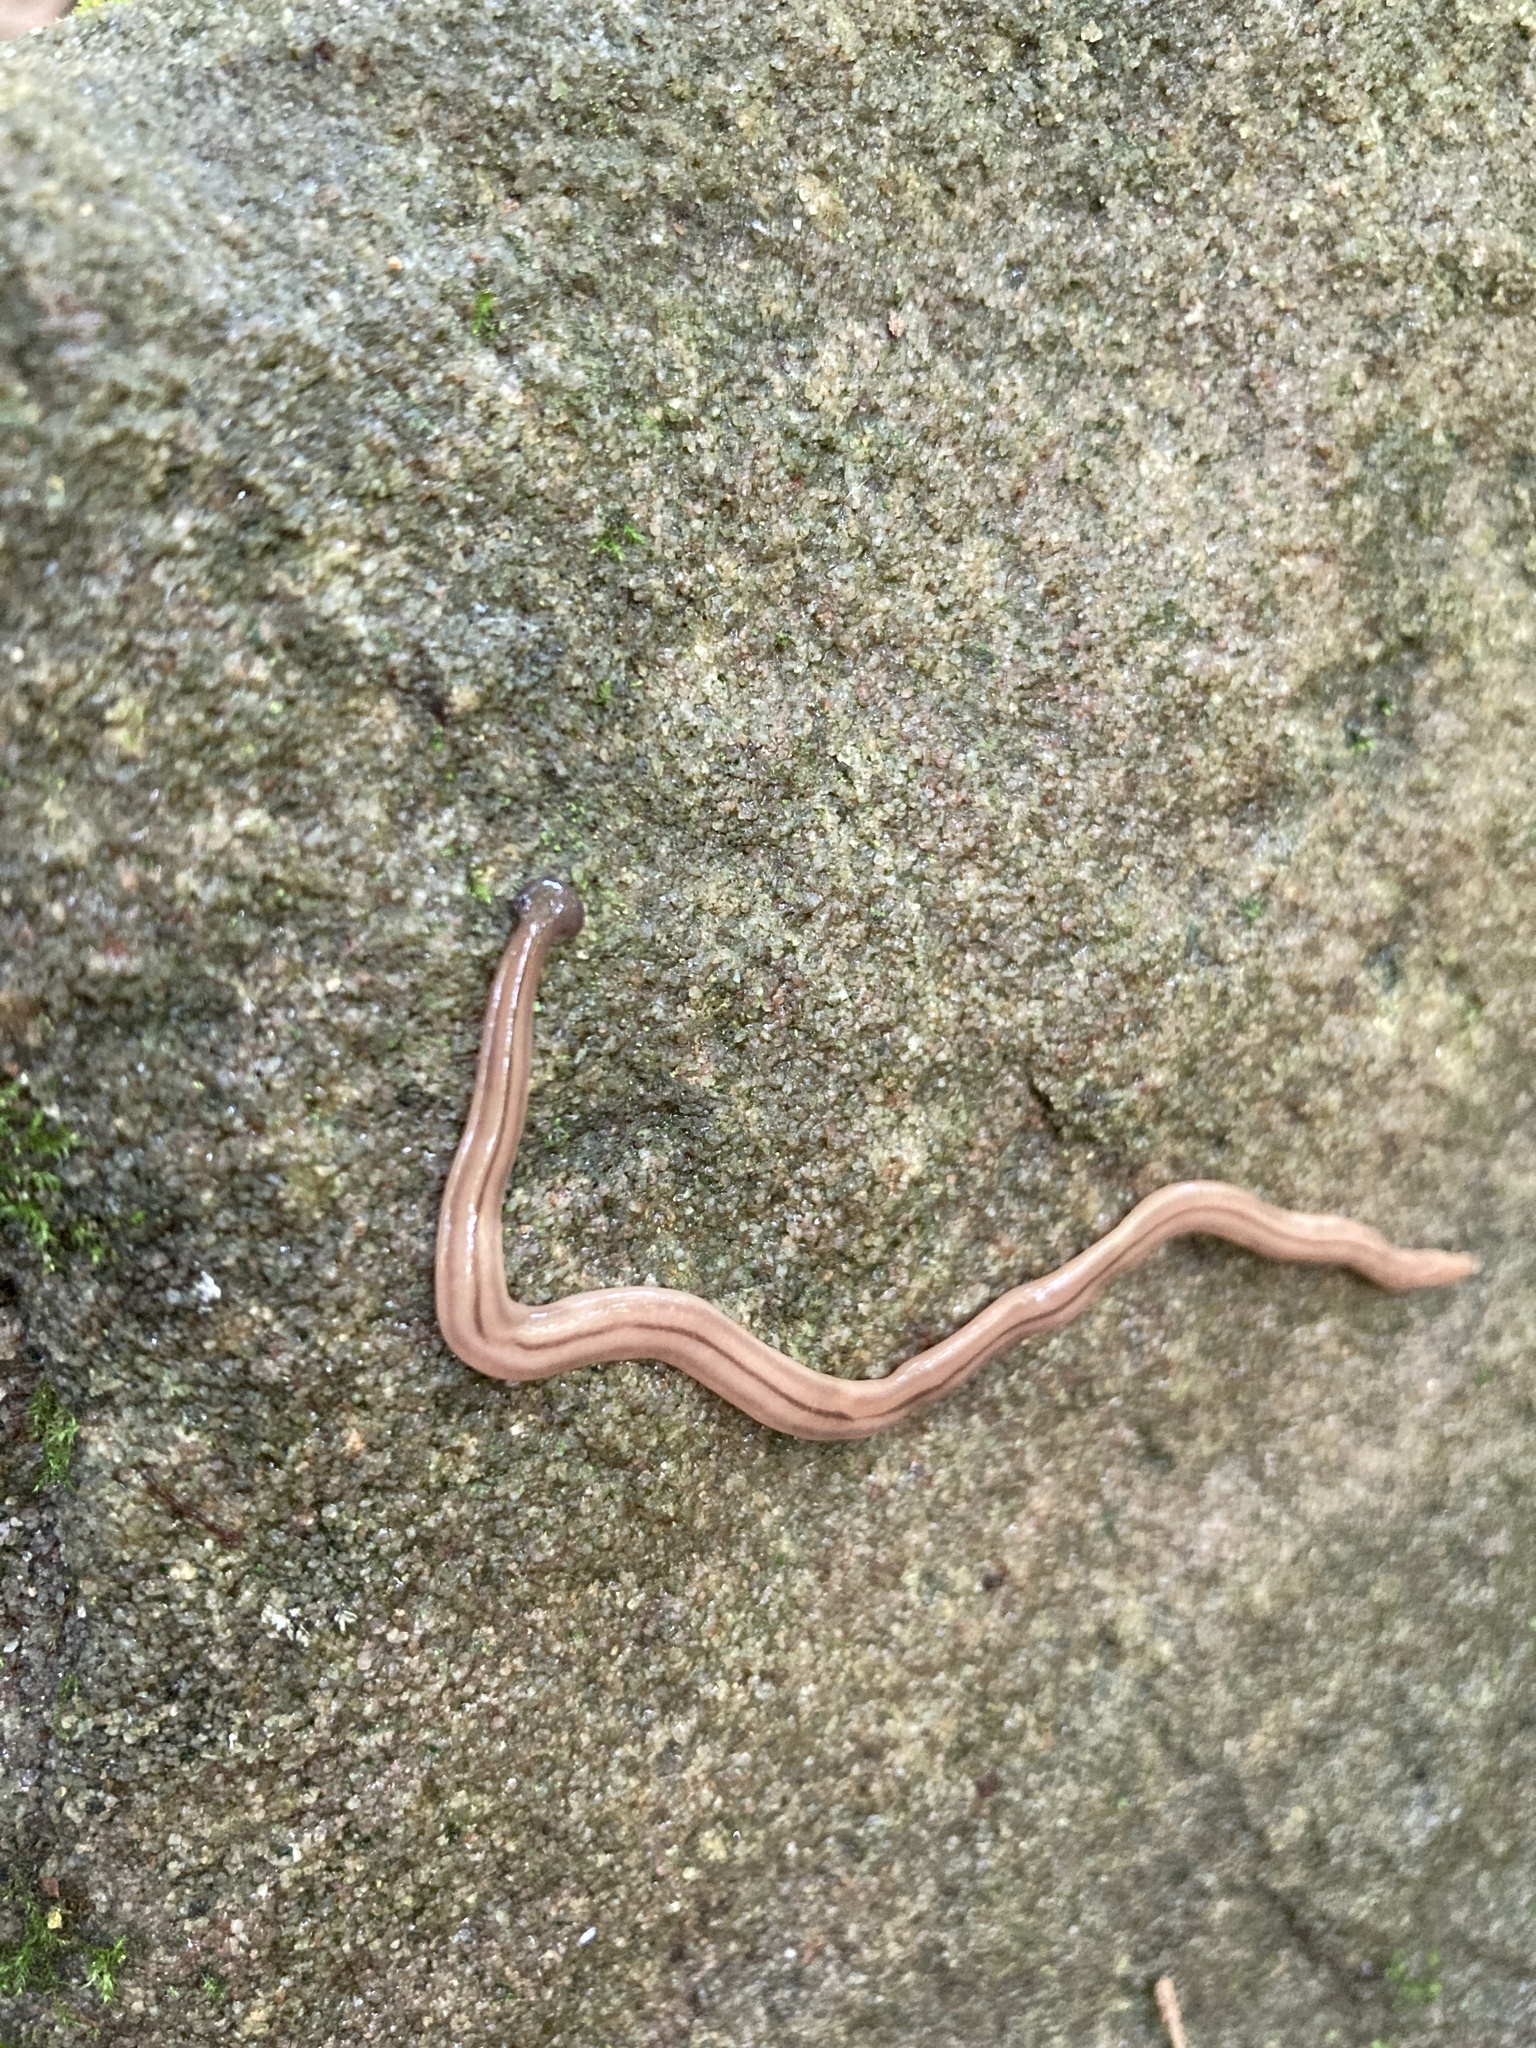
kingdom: Animalia
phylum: Platyhelminthes
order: Tricladida
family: Geoplanidae
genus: Bipalium
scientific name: Bipalium pennsylvanicum
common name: Three-lined land planarian
